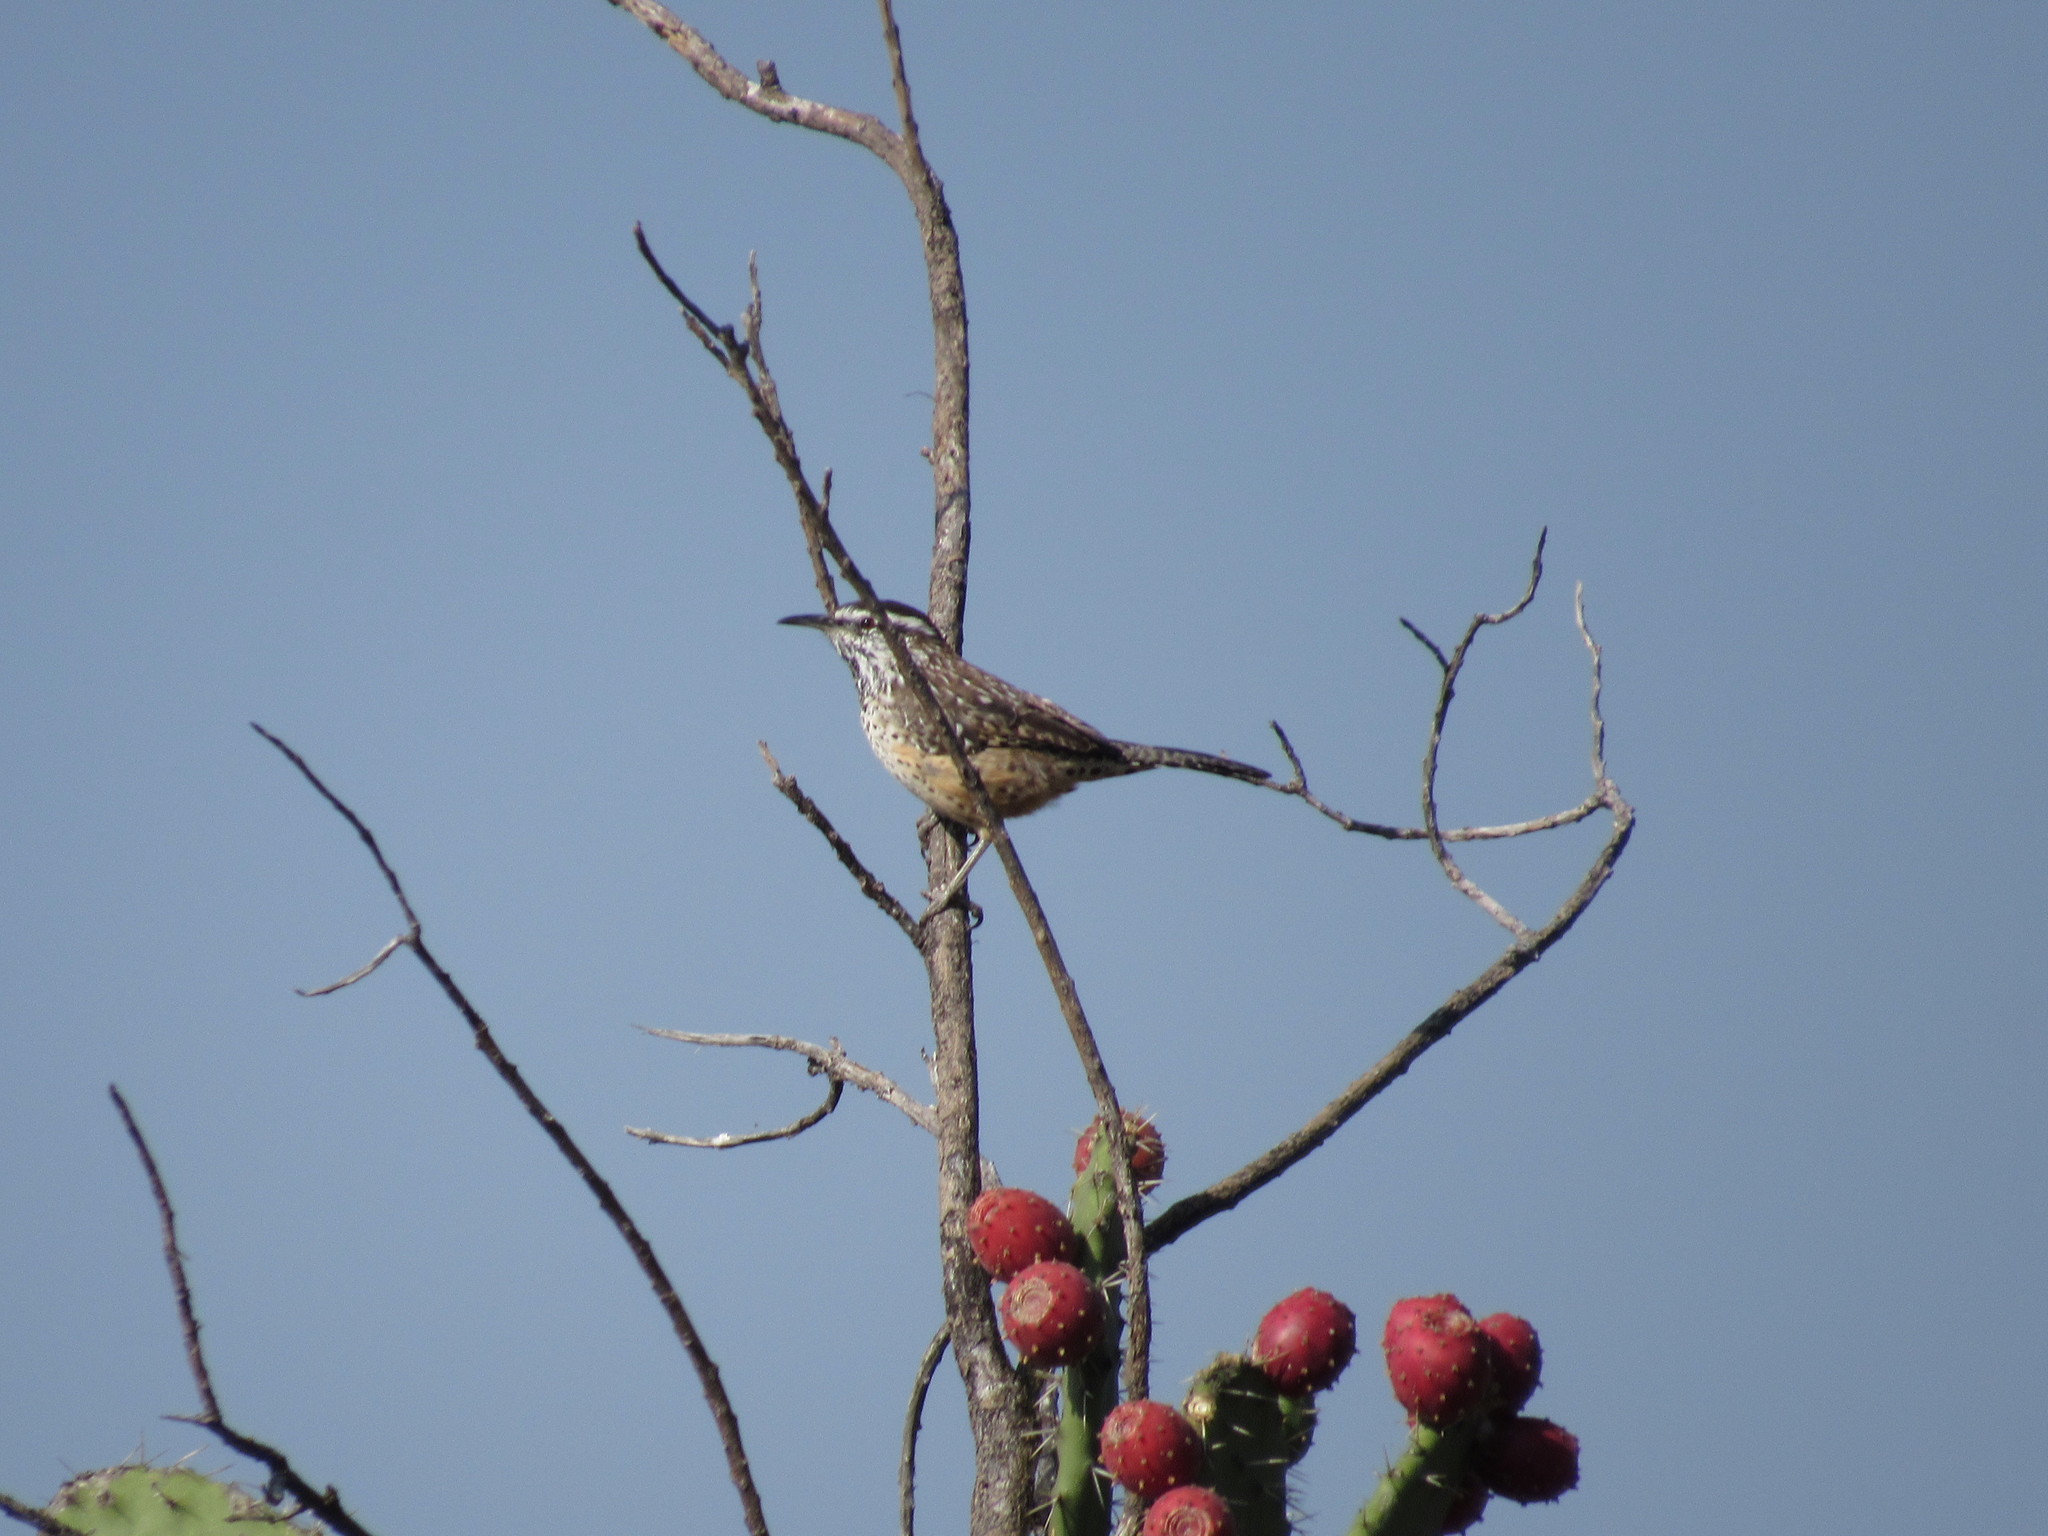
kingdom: Animalia
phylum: Chordata
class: Aves
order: Passeriformes
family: Troglodytidae
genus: Campylorhynchus
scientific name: Campylorhynchus brunneicapillus
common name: Cactus wren
